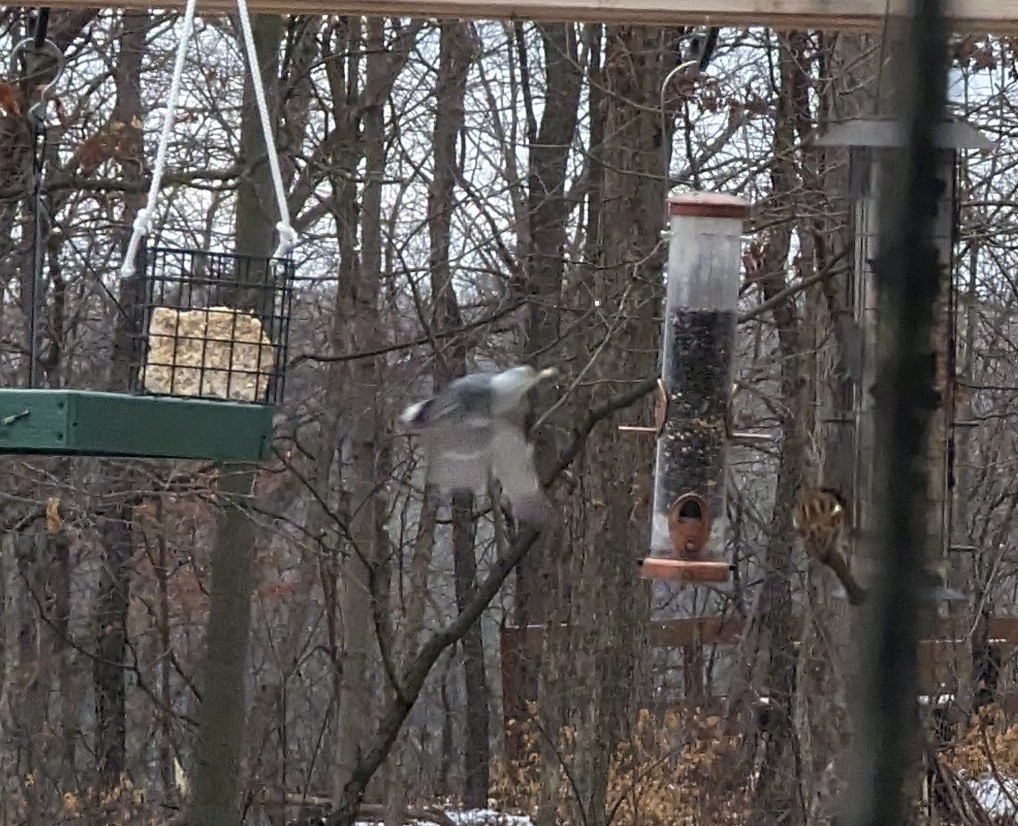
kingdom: Animalia
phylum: Chordata
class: Aves
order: Passeriformes
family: Sittidae
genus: Sitta
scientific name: Sitta carolinensis
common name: White-breasted nuthatch
